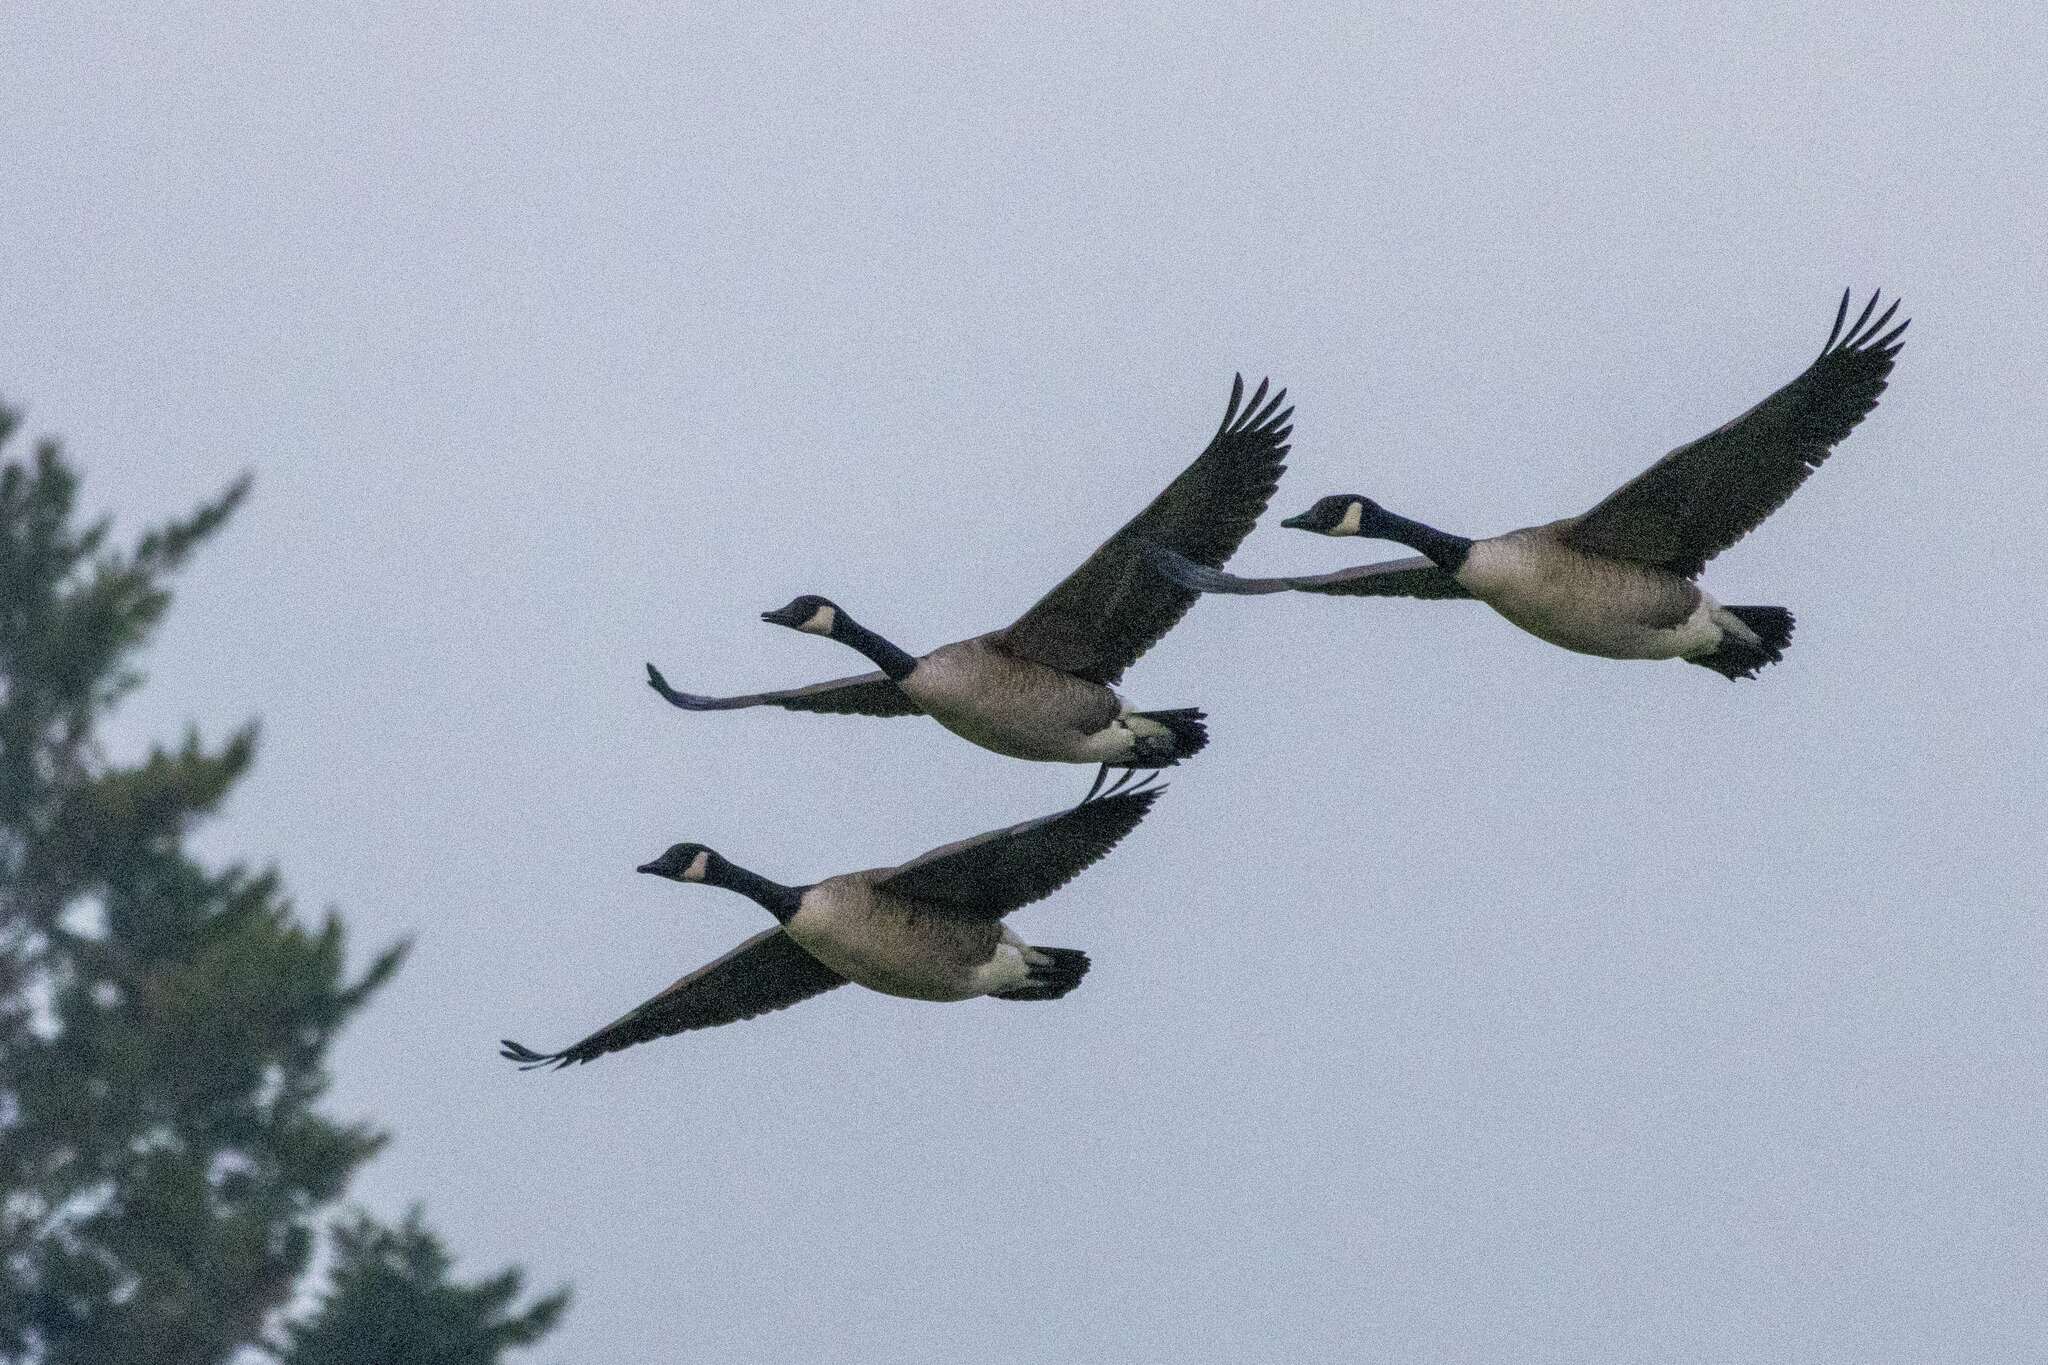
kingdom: Animalia
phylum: Chordata
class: Aves
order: Anseriformes
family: Anatidae
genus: Branta
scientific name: Branta canadensis
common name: Canada goose
